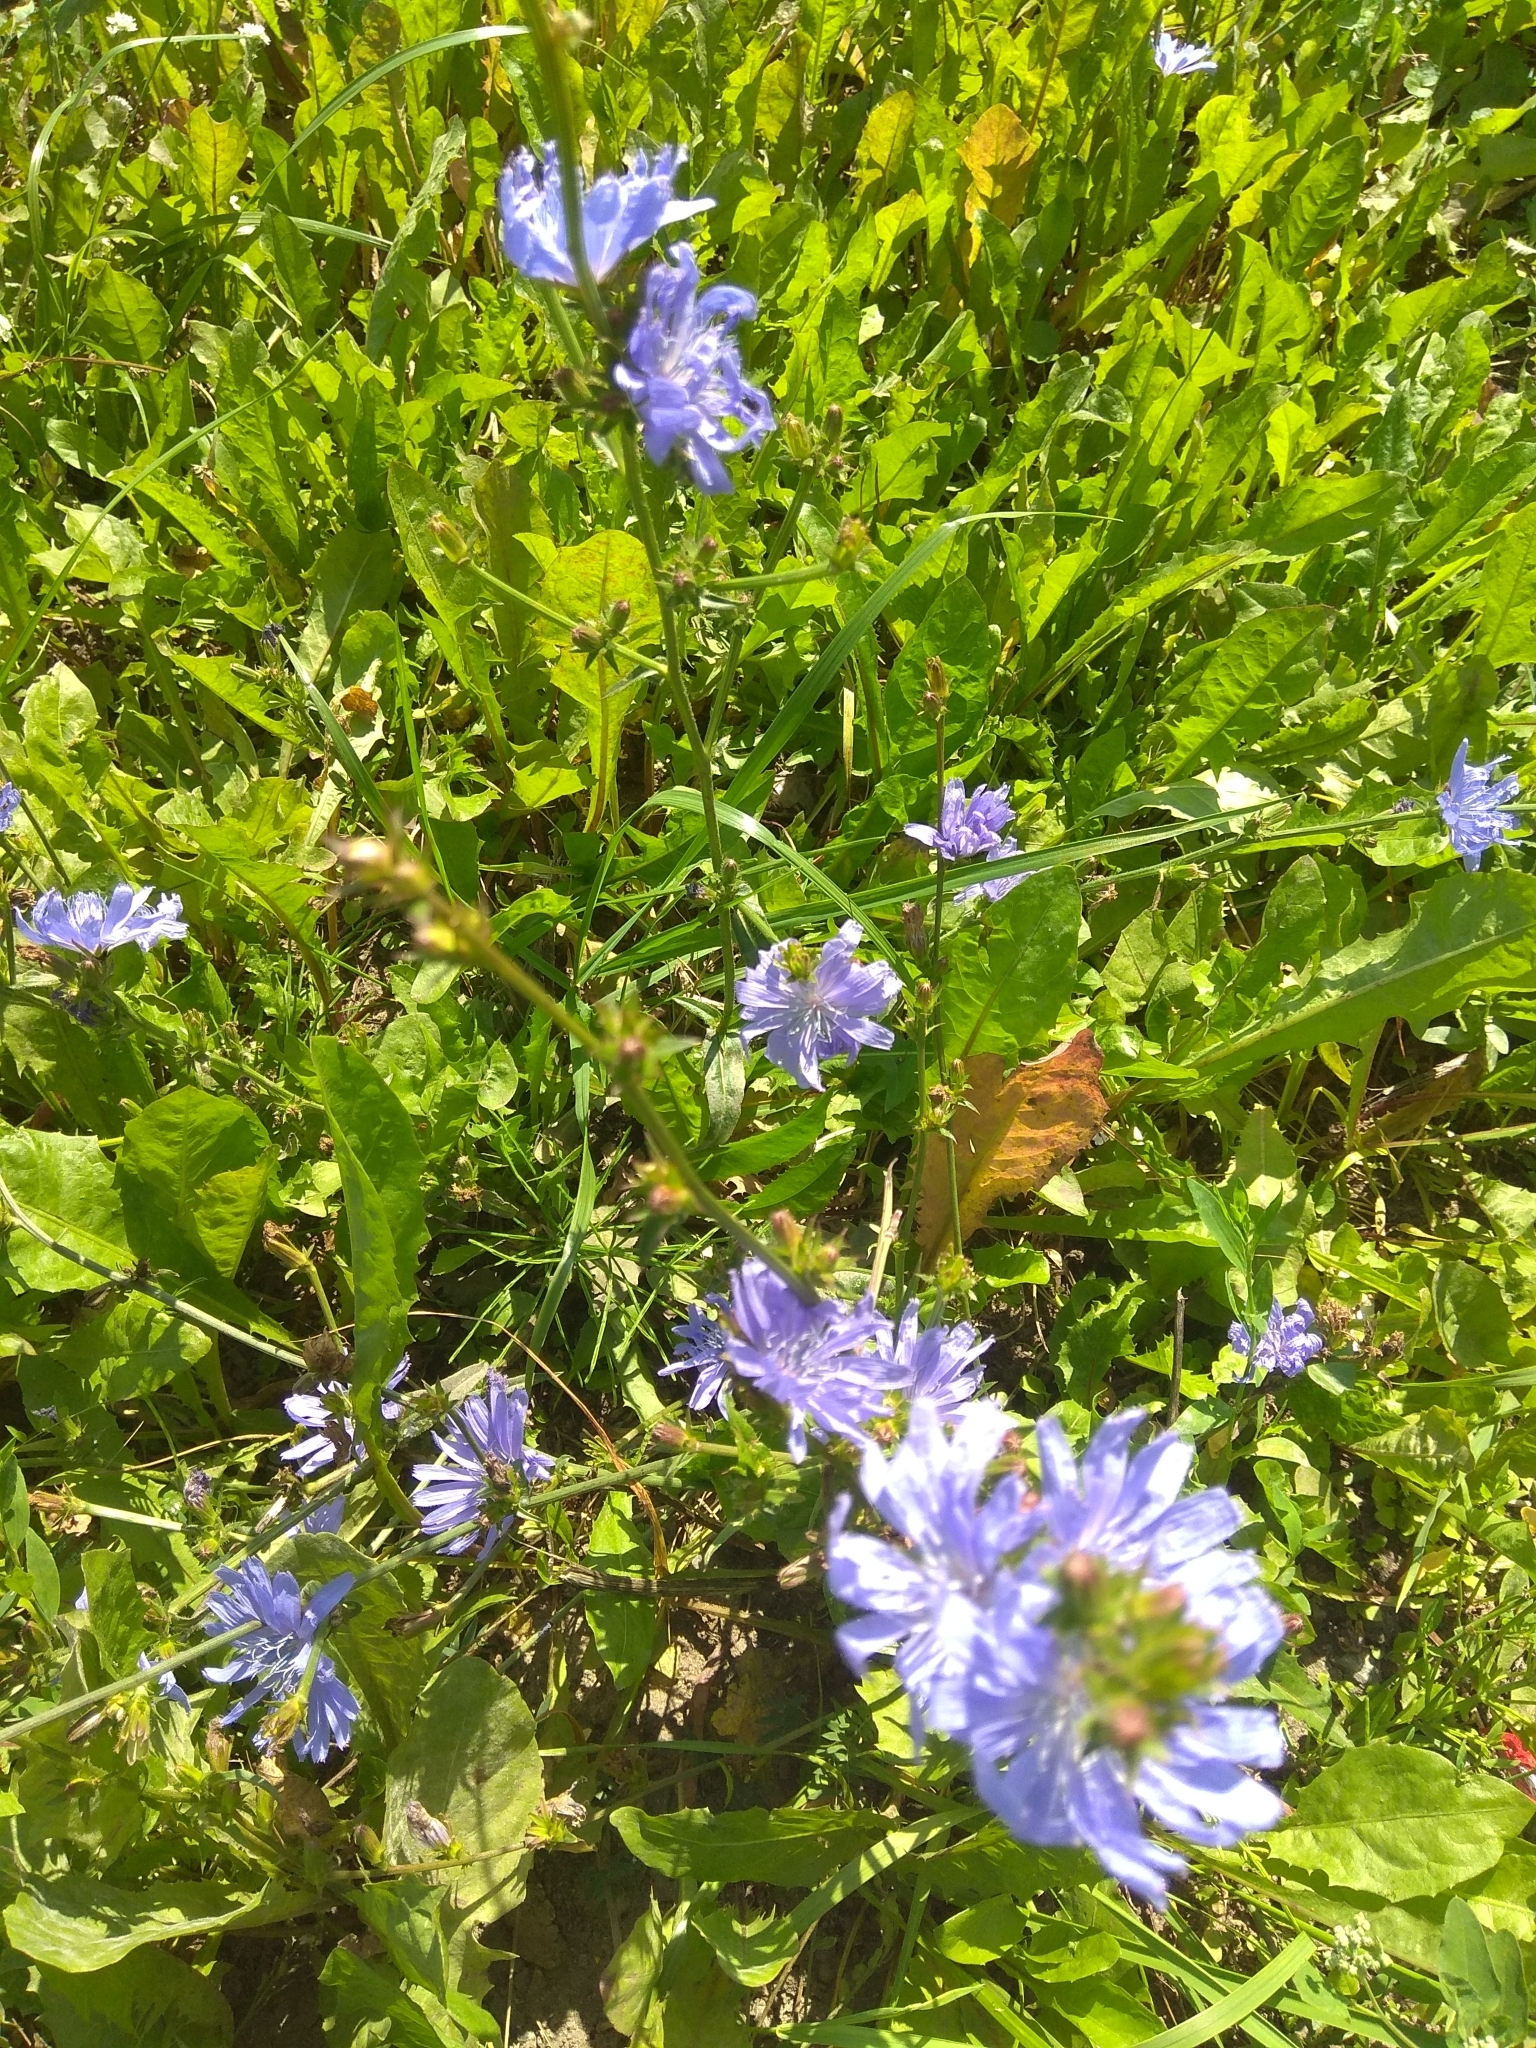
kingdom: Plantae
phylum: Tracheophyta
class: Magnoliopsida
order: Asterales
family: Asteraceae
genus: Cichorium
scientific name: Cichorium intybus
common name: Chicory
